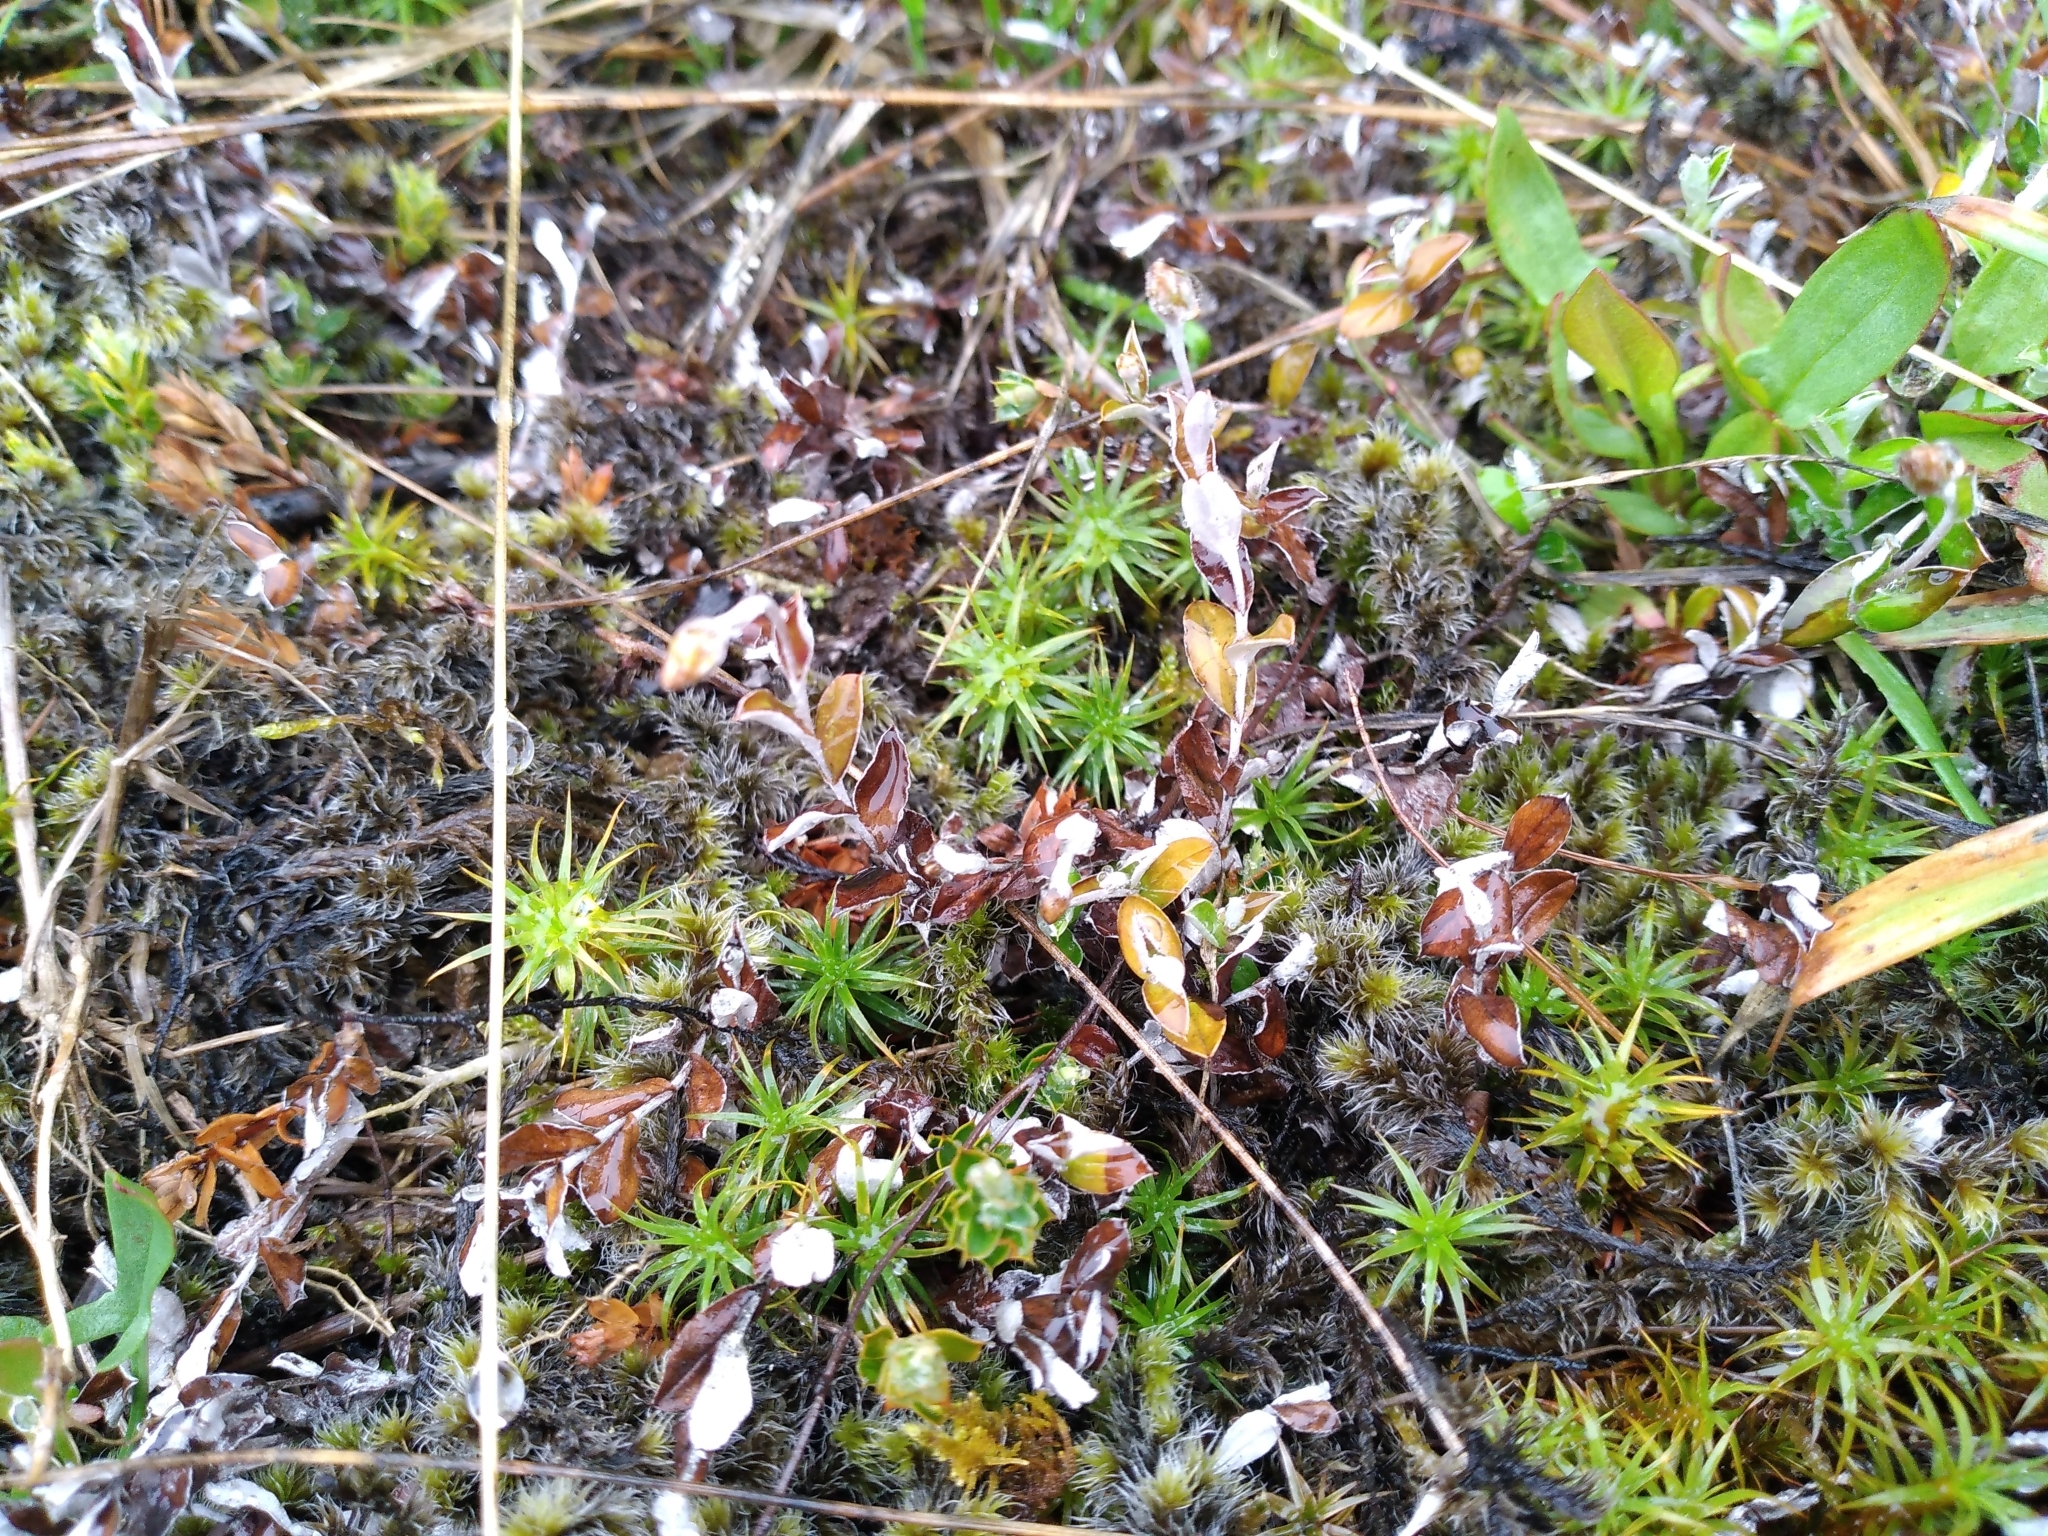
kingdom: Plantae
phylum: Tracheophyta
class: Magnoliopsida
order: Asterales
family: Asteraceae
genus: Helichrysum
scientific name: Helichrysum filicaule
